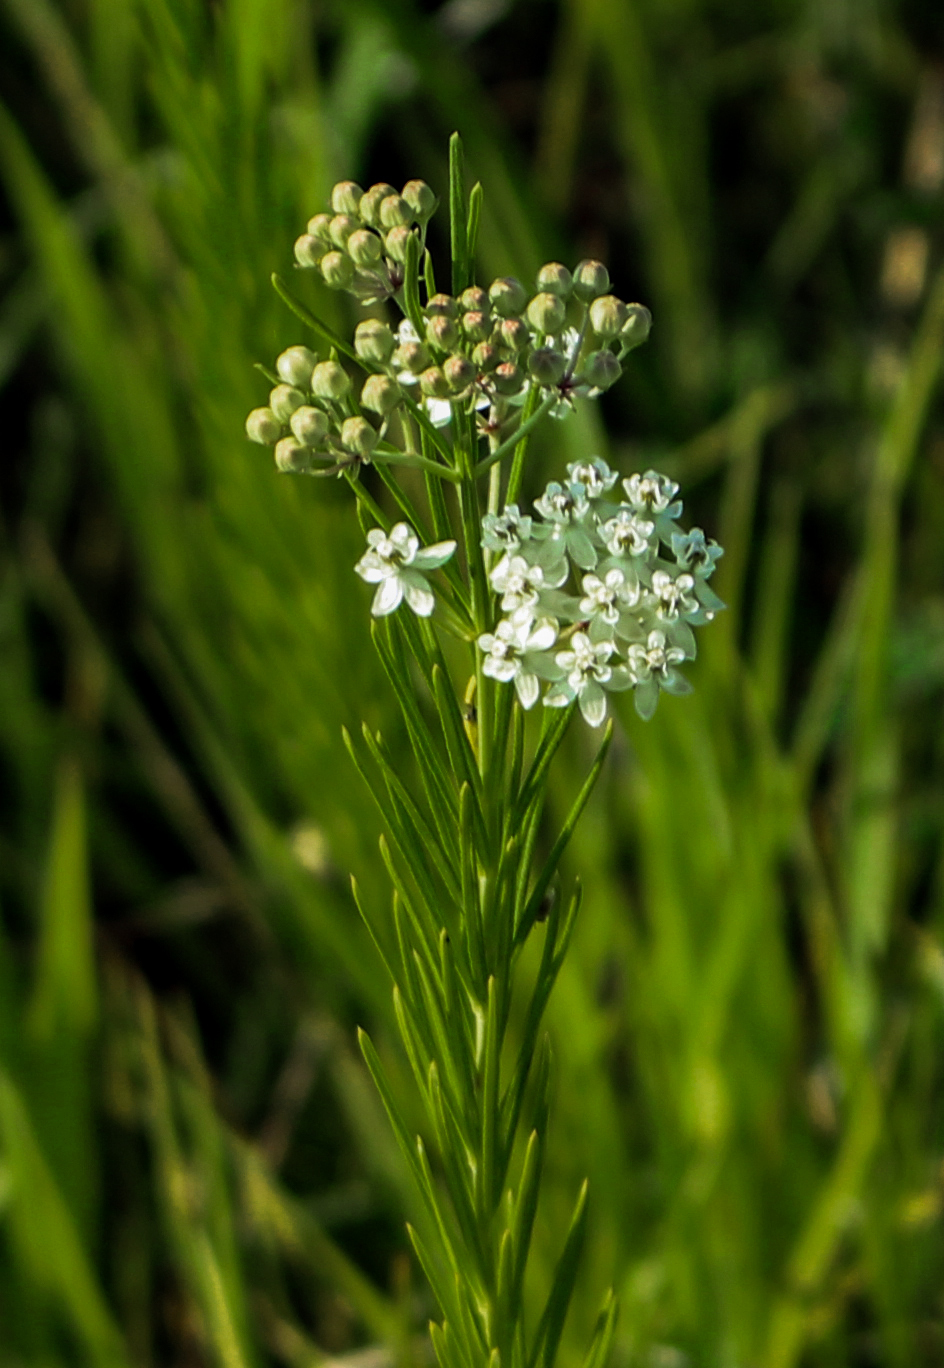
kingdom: Plantae
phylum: Tracheophyta
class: Magnoliopsida
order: Gentianales
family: Apocynaceae
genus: Asclepias
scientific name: Asclepias verticillata
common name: Eastern whorled milkweed
